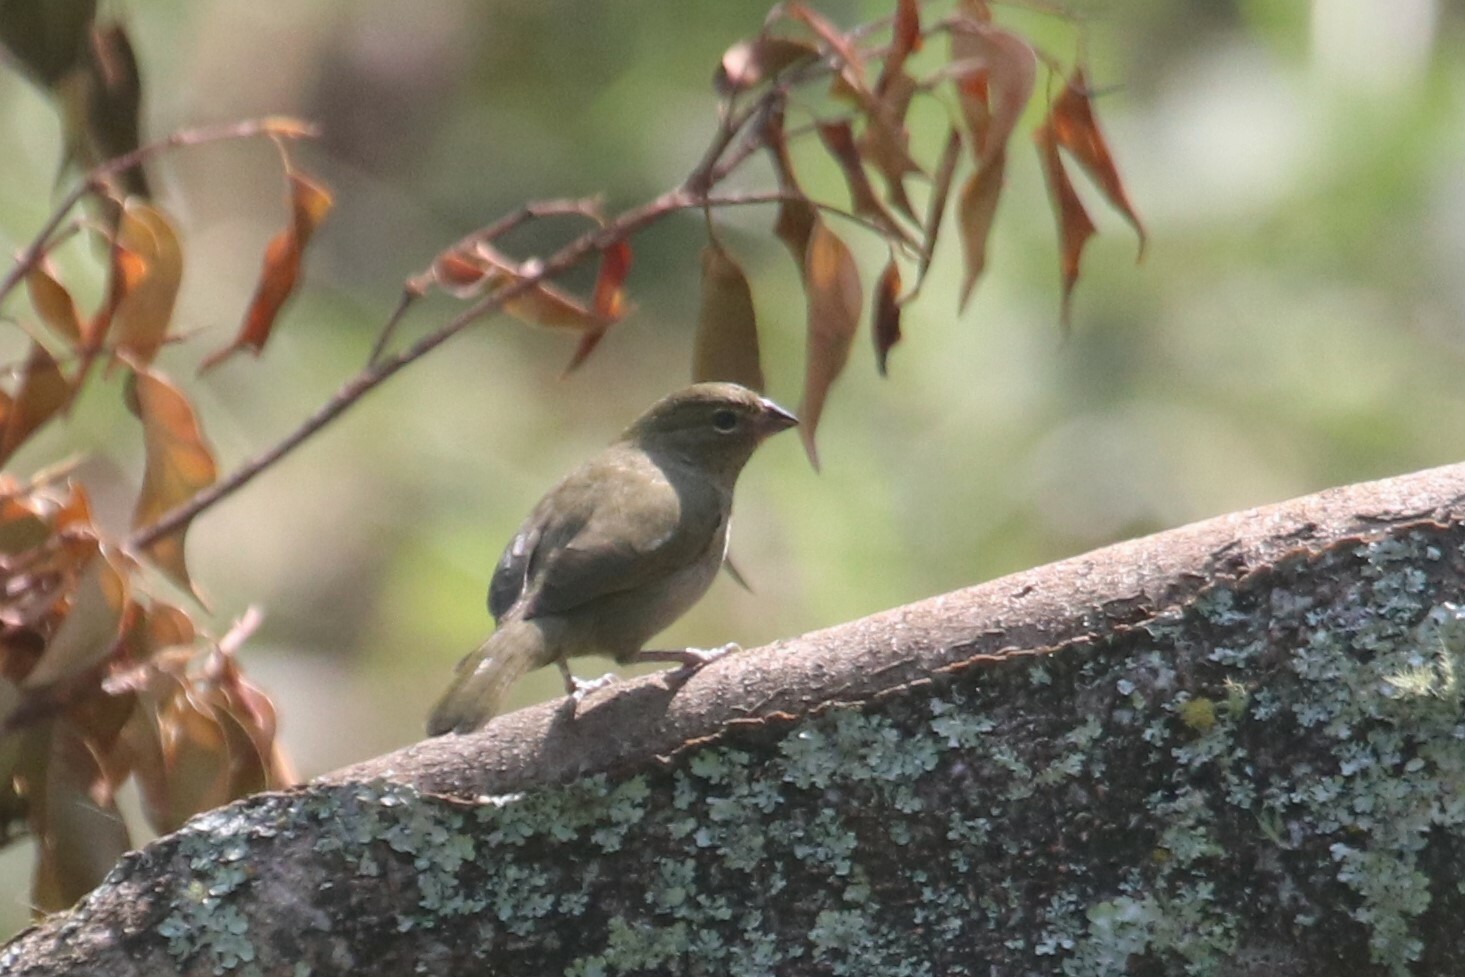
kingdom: Animalia
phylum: Chordata
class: Aves
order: Passeriformes
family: Thraupidae
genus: Tiaris
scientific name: Tiaris olivaceus
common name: Yellow-faced grassquit
